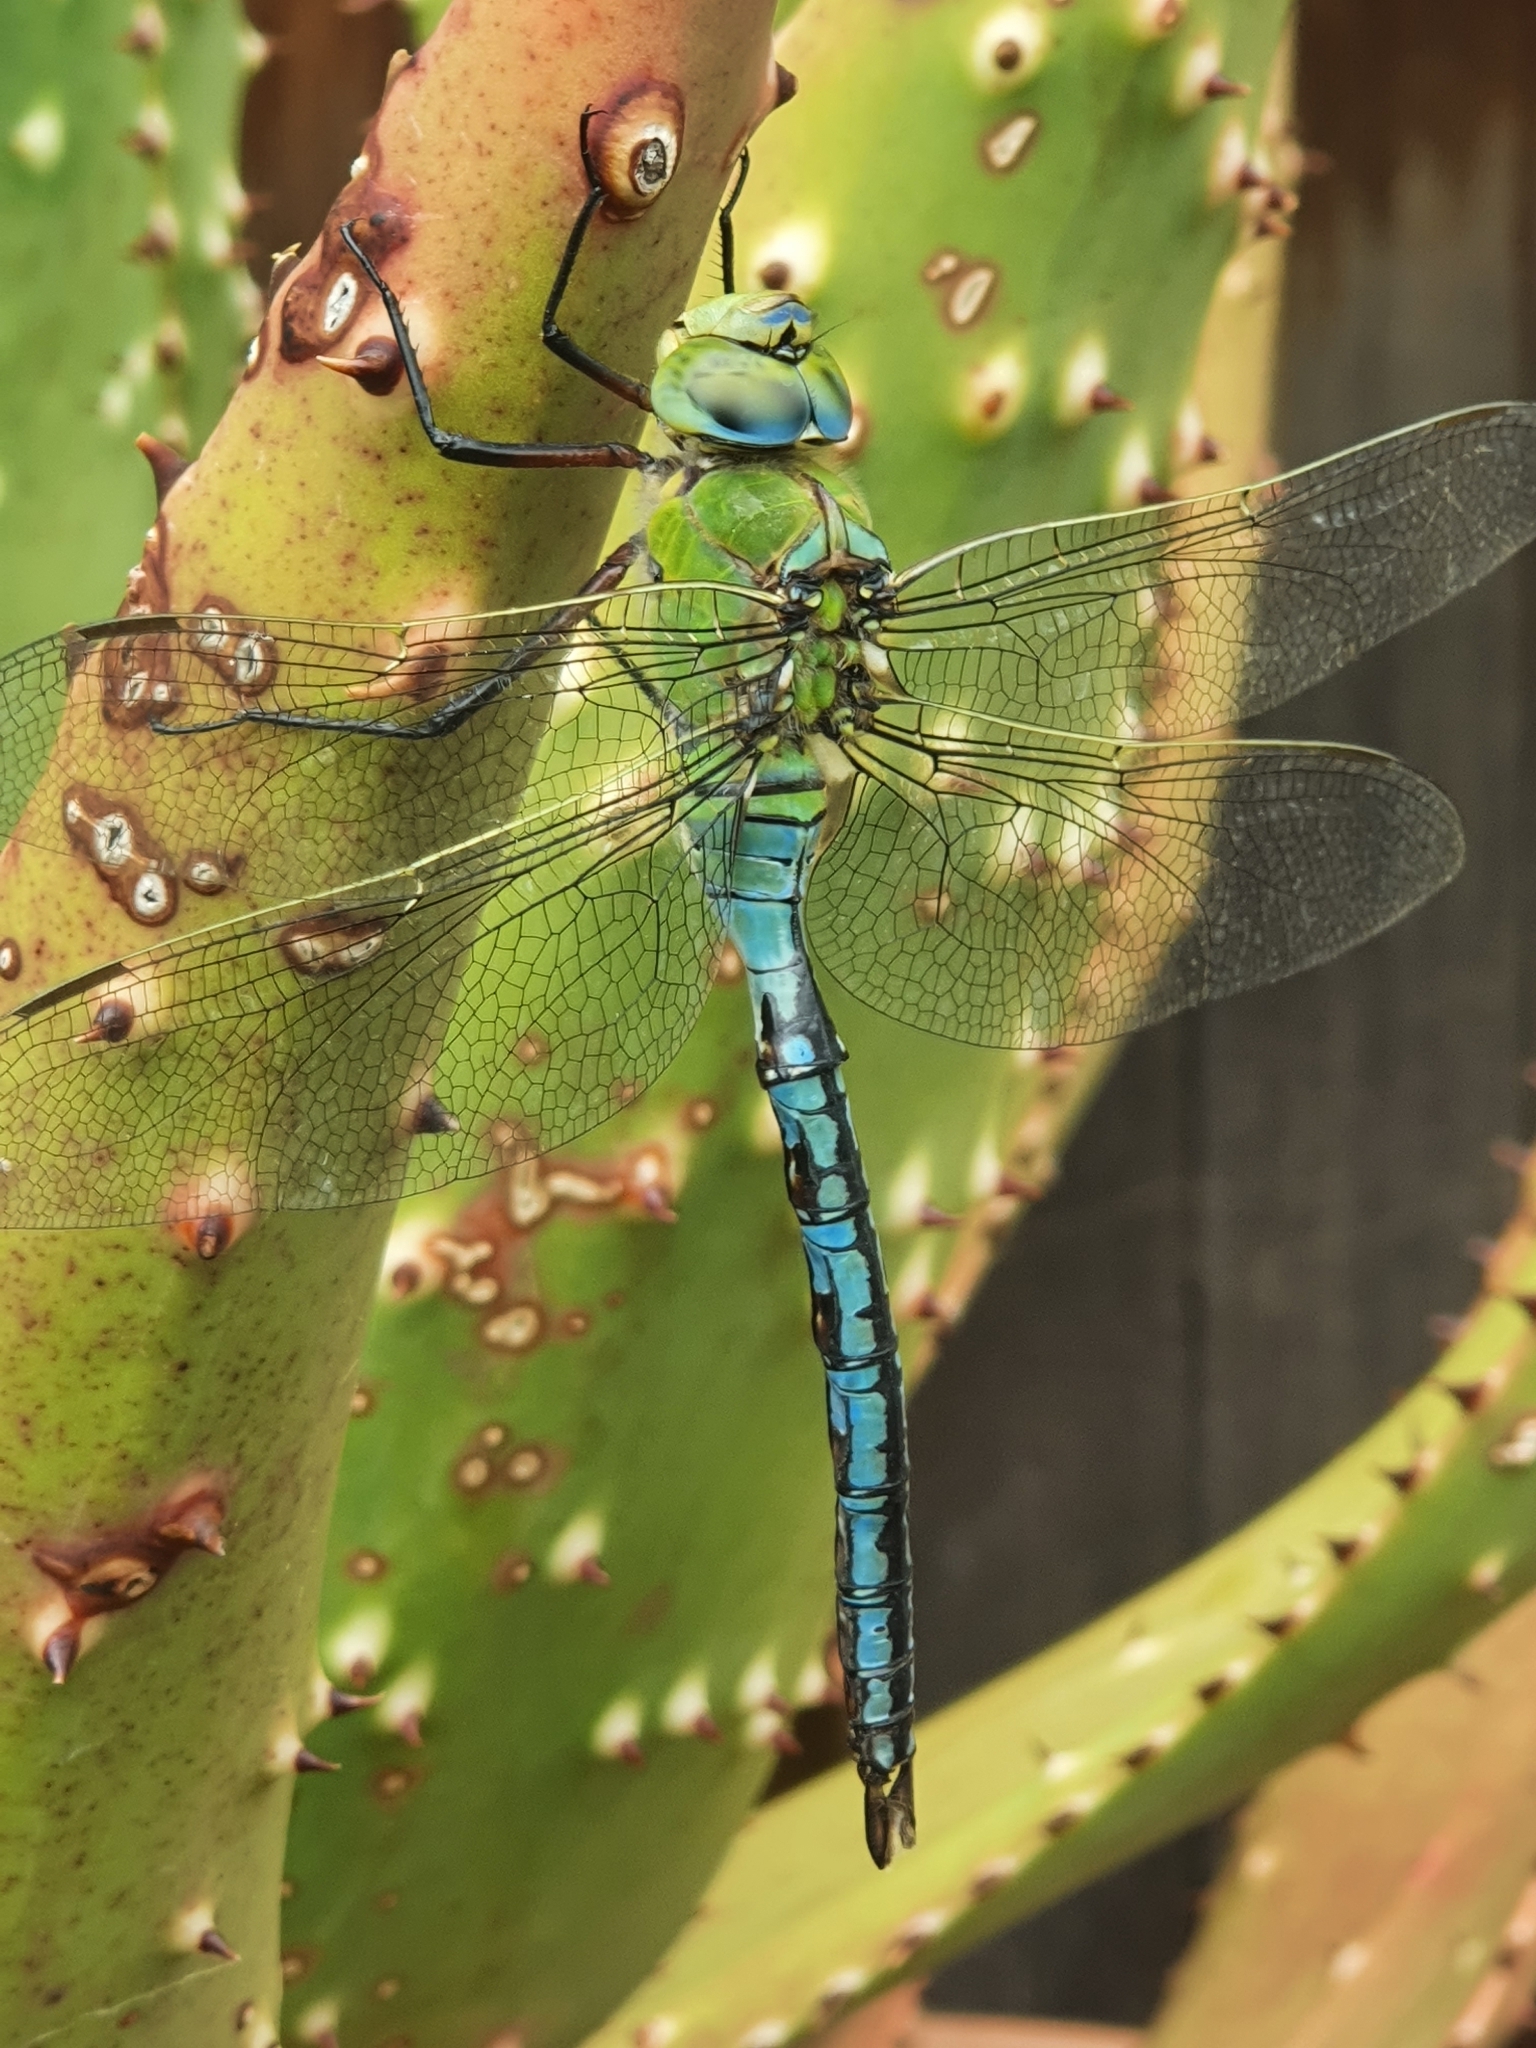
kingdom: Animalia
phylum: Arthropoda
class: Insecta
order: Odonata
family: Aeshnidae
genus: Anax
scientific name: Anax imperator
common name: Emperor dragonfly
